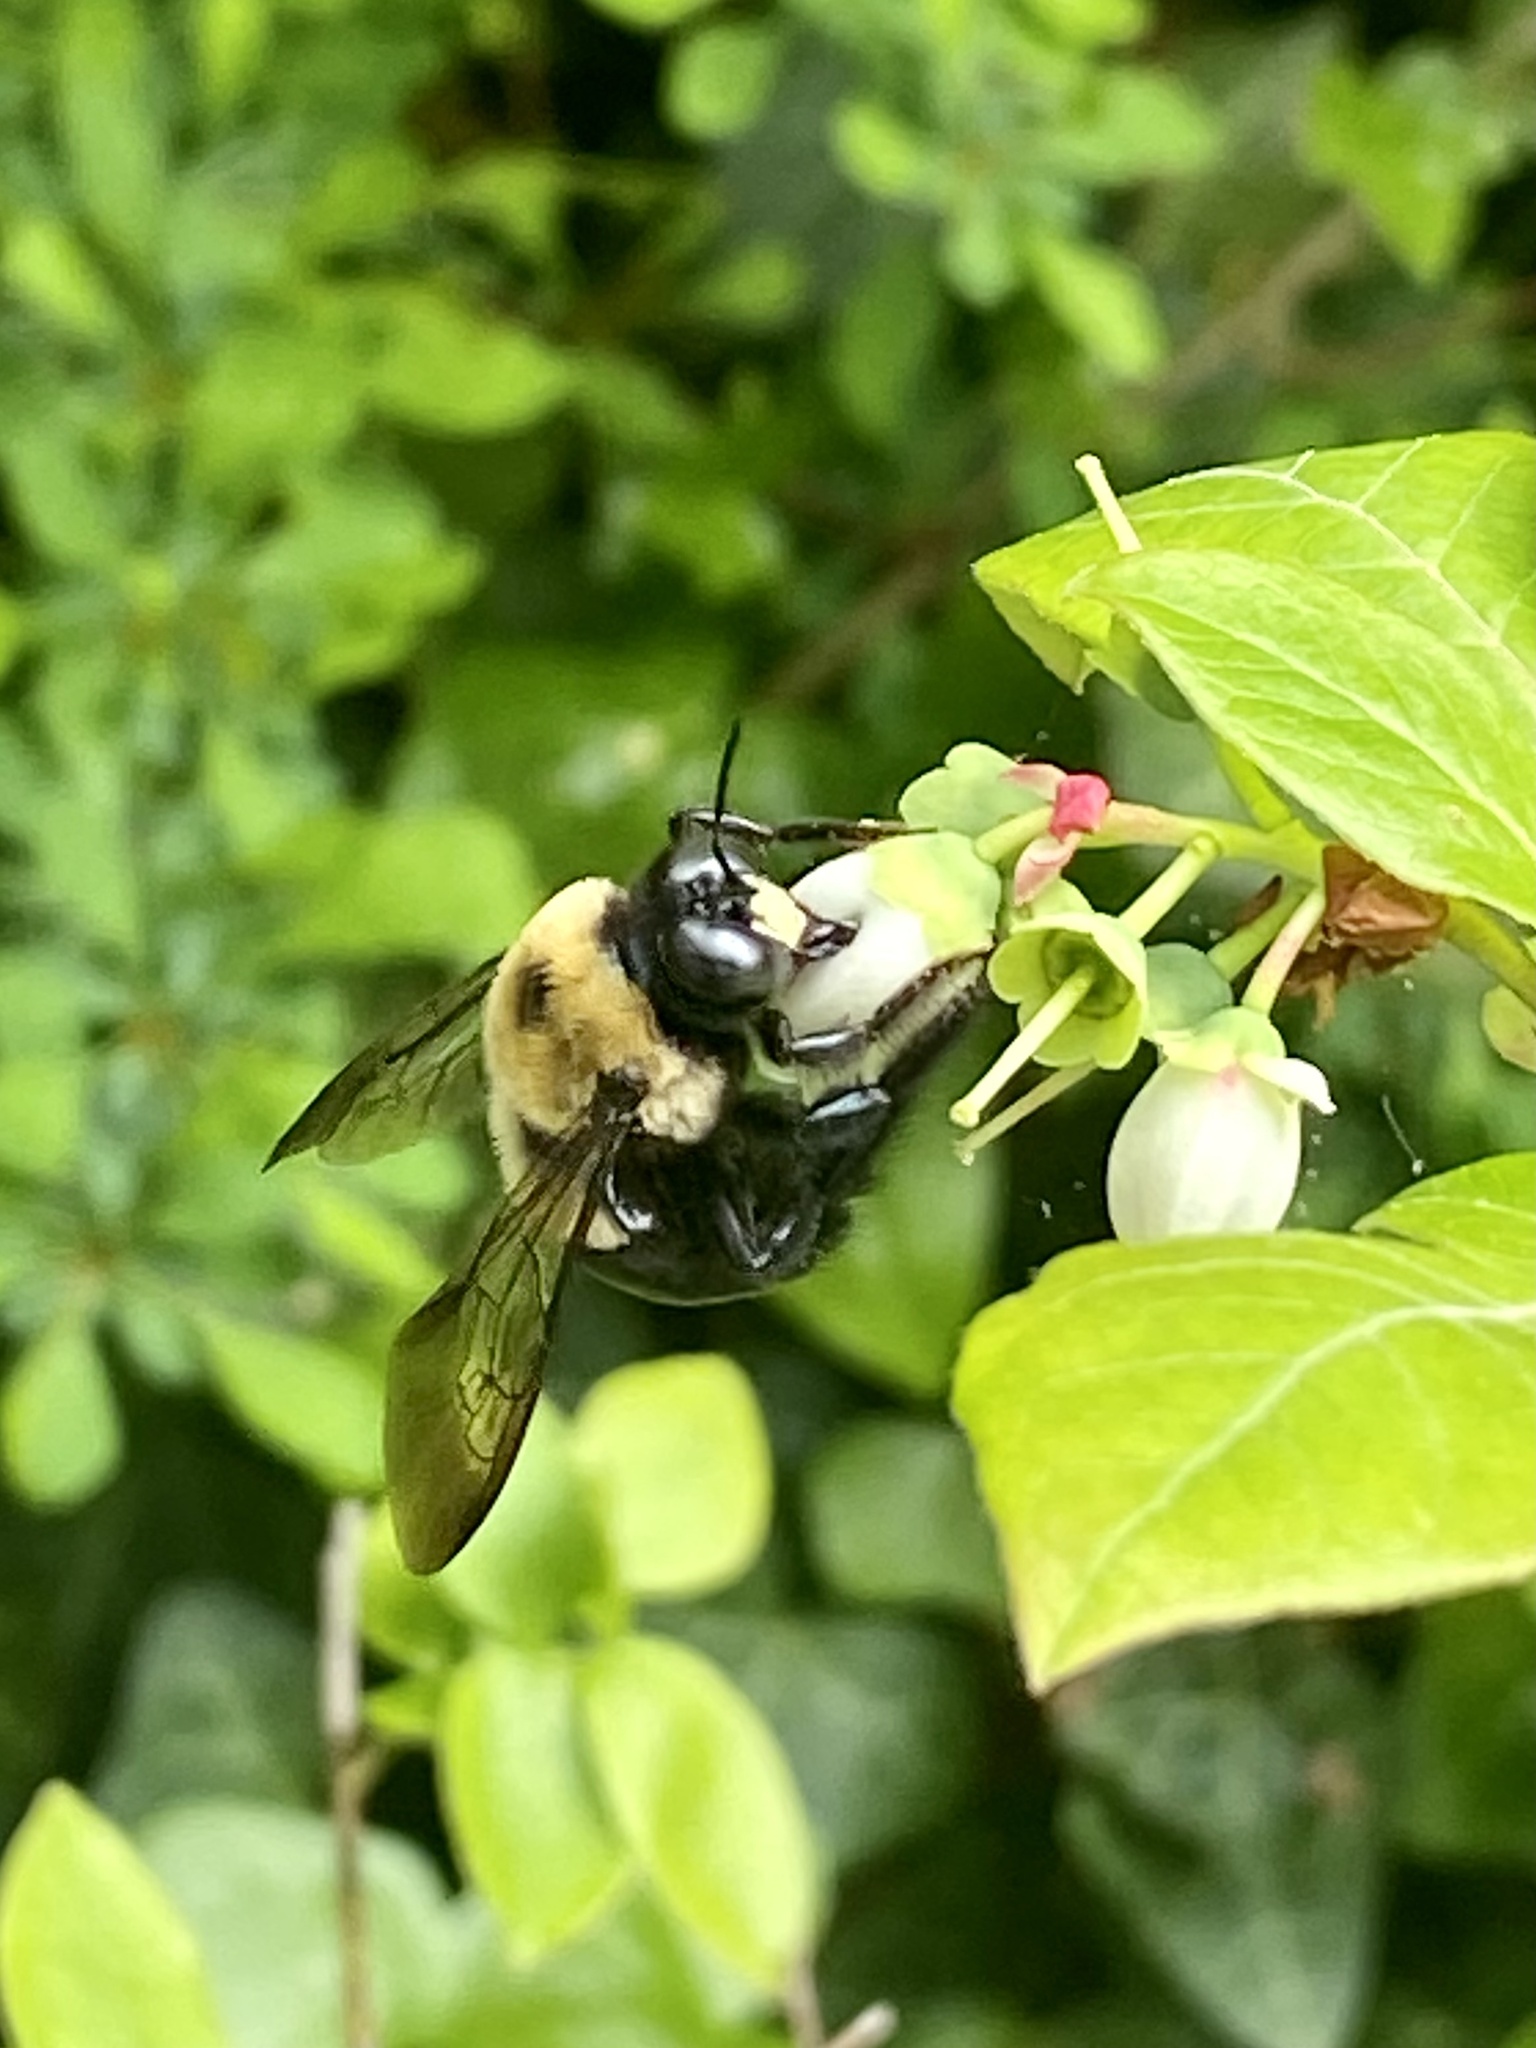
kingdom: Animalia
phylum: Arthropoda
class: Insecta
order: Hymenoptera
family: Apidae
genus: Xylocopa
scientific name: Xylocopa virginica
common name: Carpenter bee
